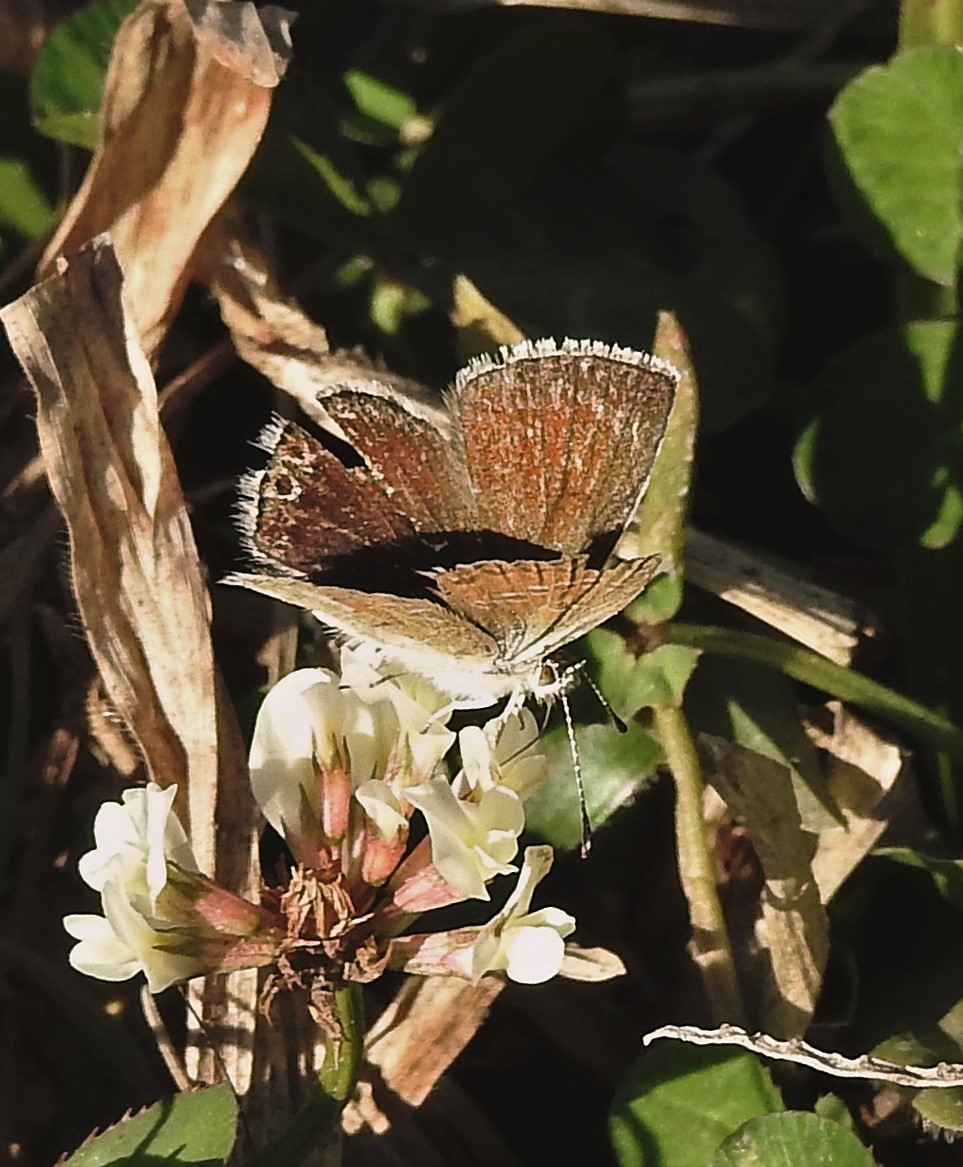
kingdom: Animalia
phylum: Arthropoda
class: Insecta
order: Lepidoptera
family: Lycaenidae
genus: Itylos
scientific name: Itylos moza
